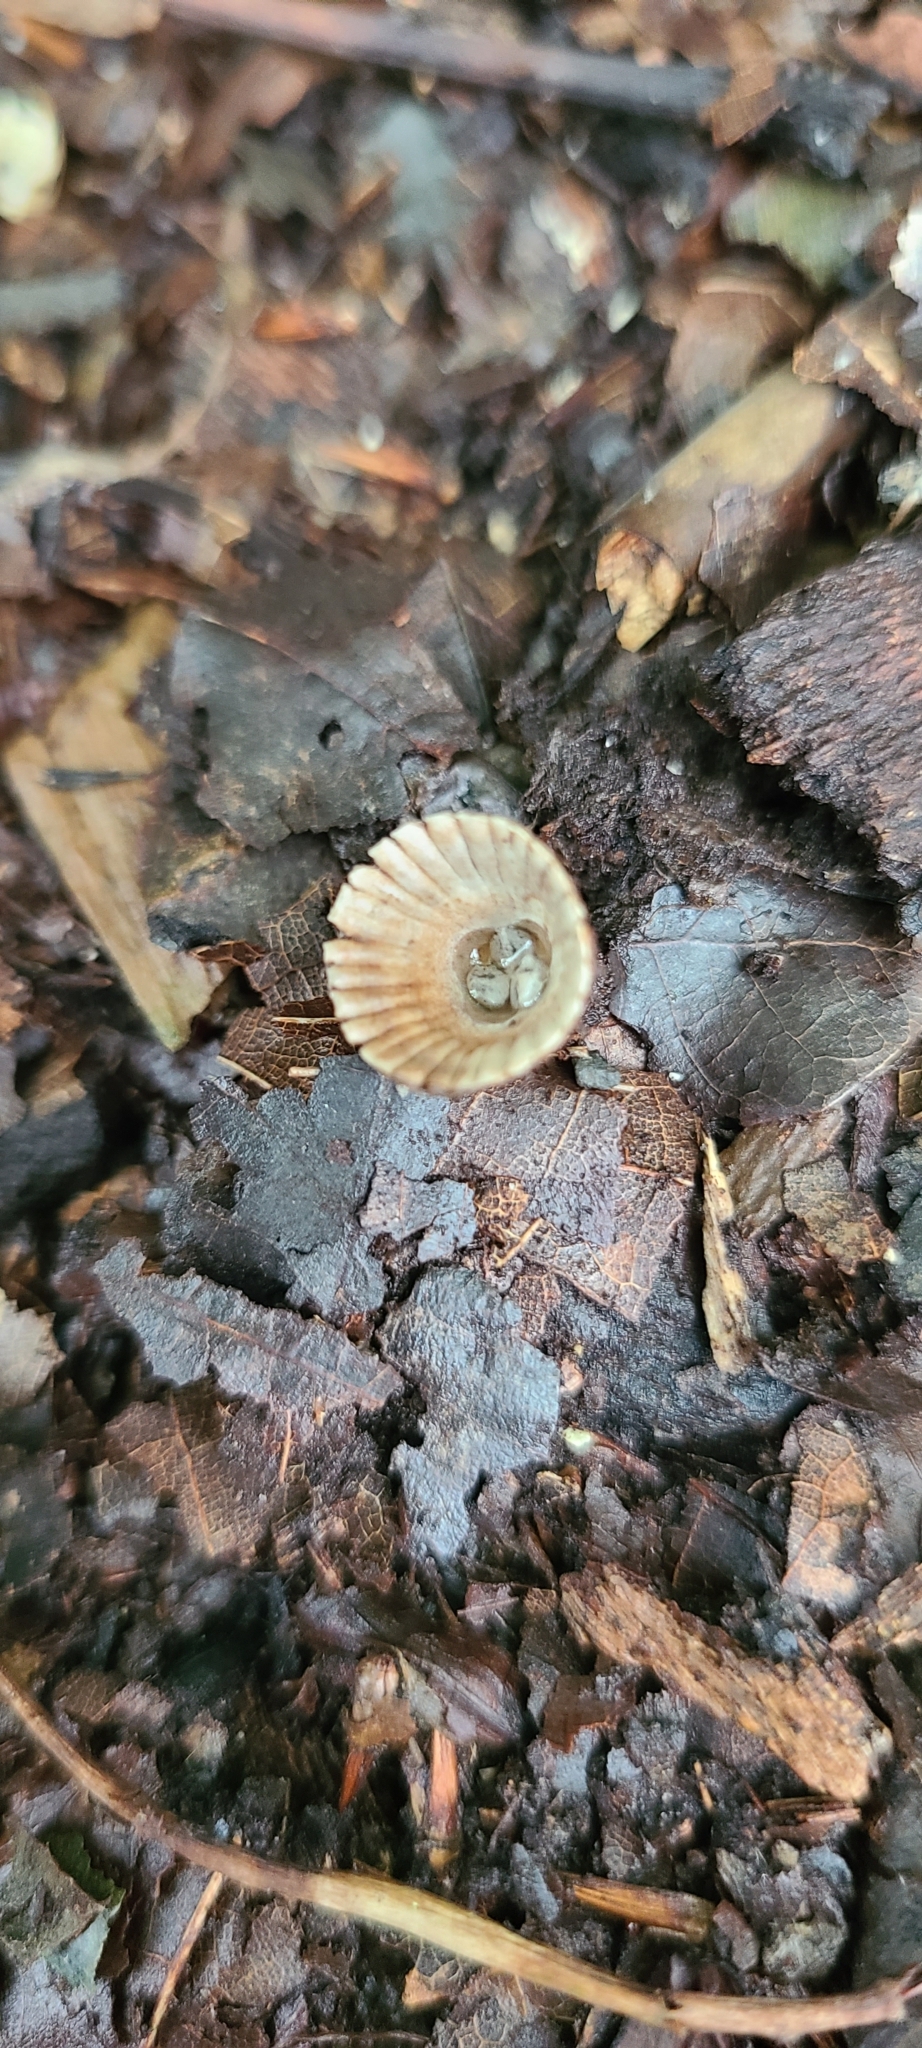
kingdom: Fungi
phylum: Basidiomycota
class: Agaricomycetes
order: Agaricales
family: Agaricaceae
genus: Cyathus
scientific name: Cyathus striatus
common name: Fluted bird's nest
